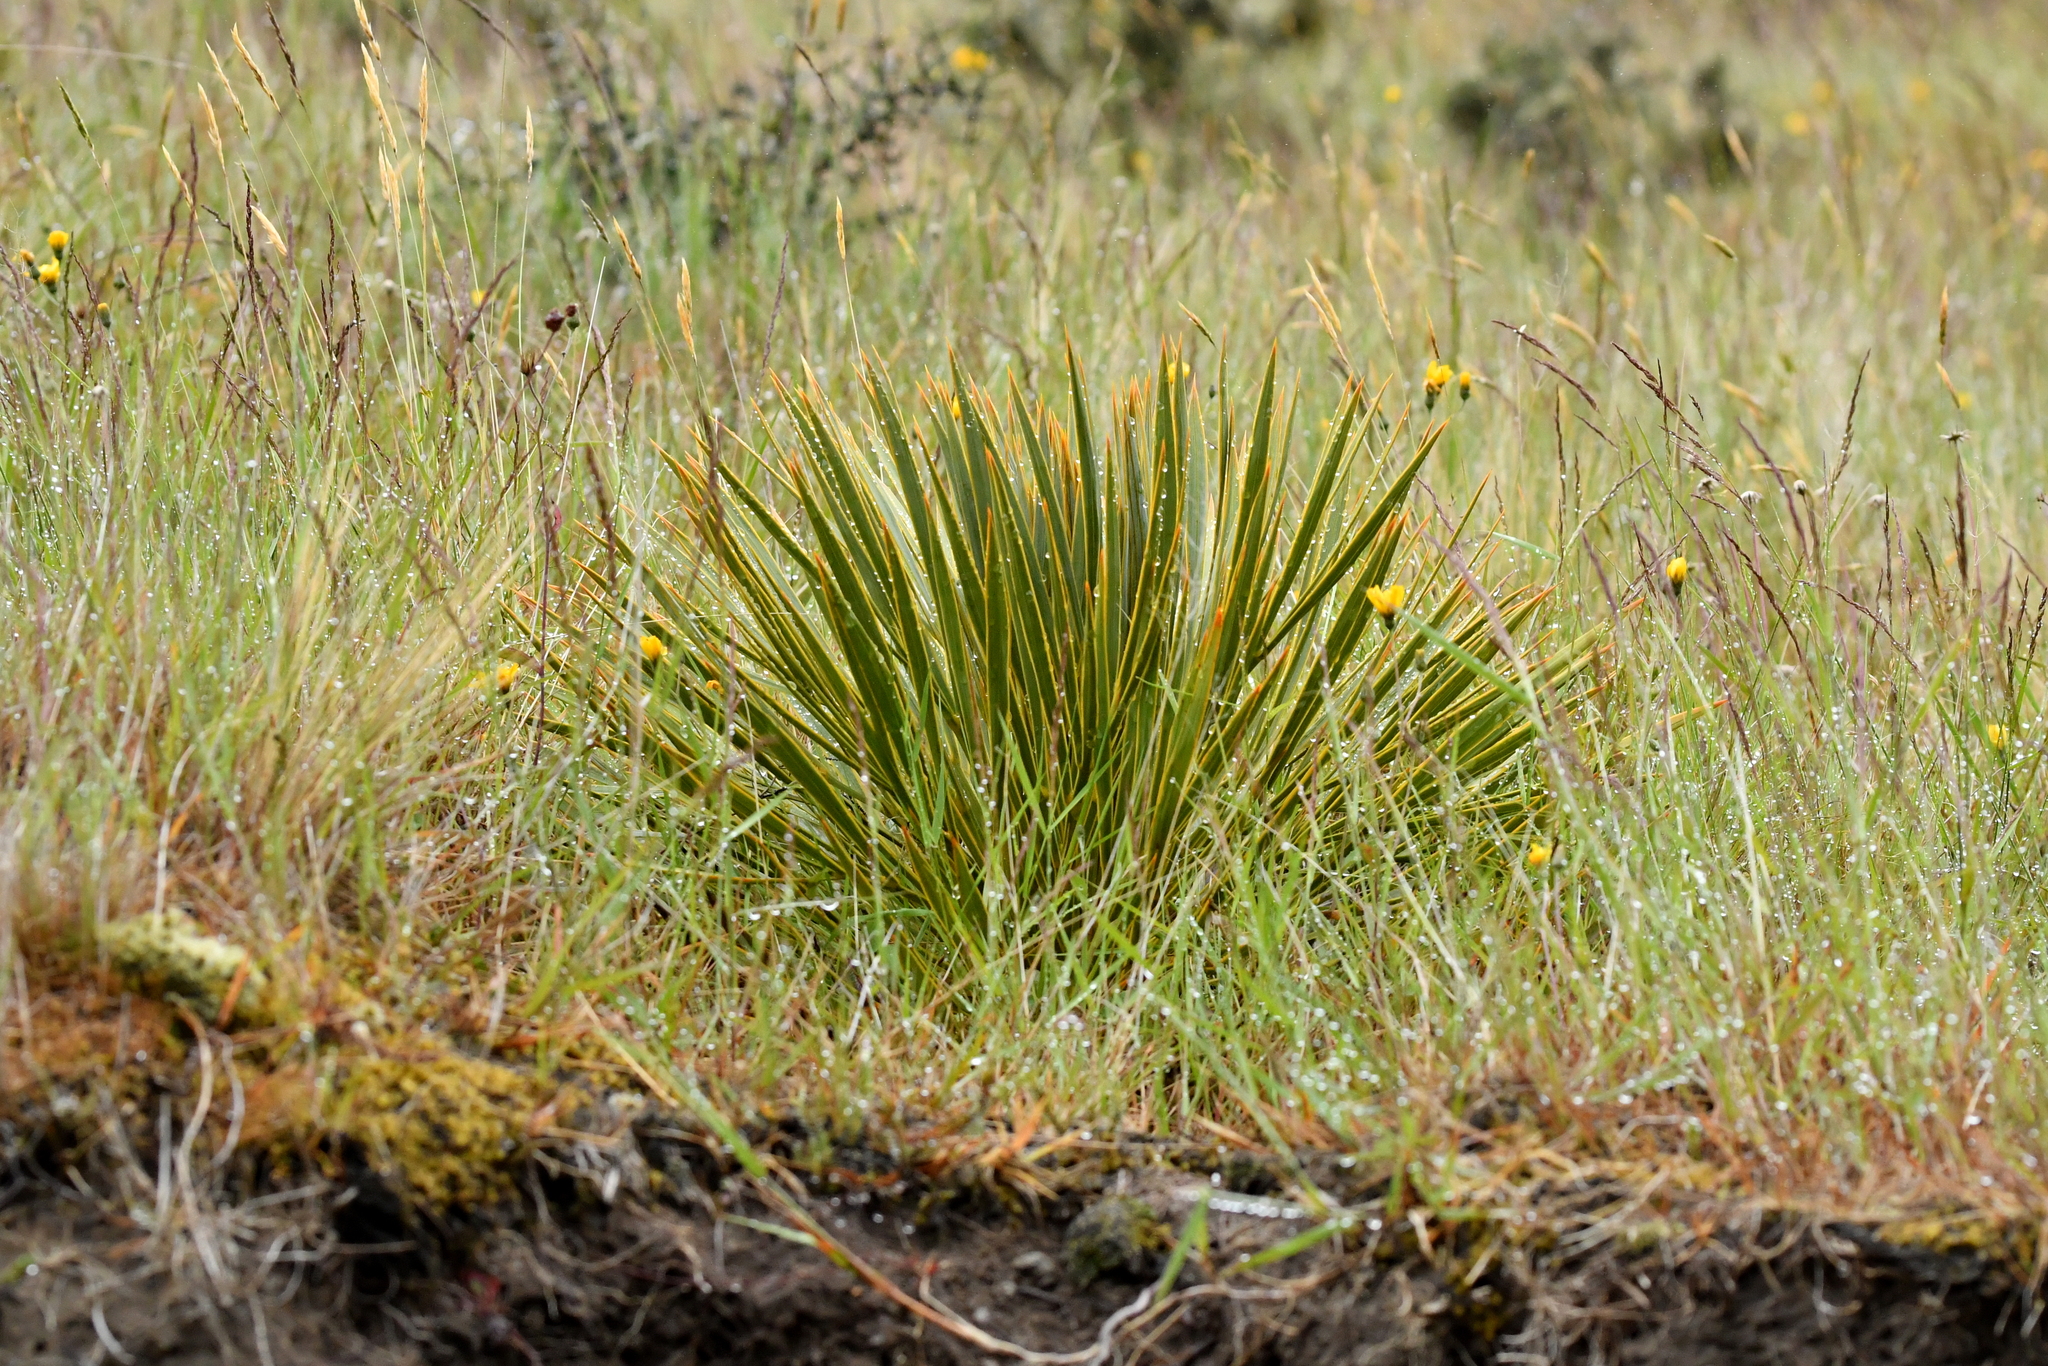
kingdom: Plantae
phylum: Tracheophyta
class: Magnoliopsida
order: Apiales
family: Apiaceae
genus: Aciphylla
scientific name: Aciphylla aurea
